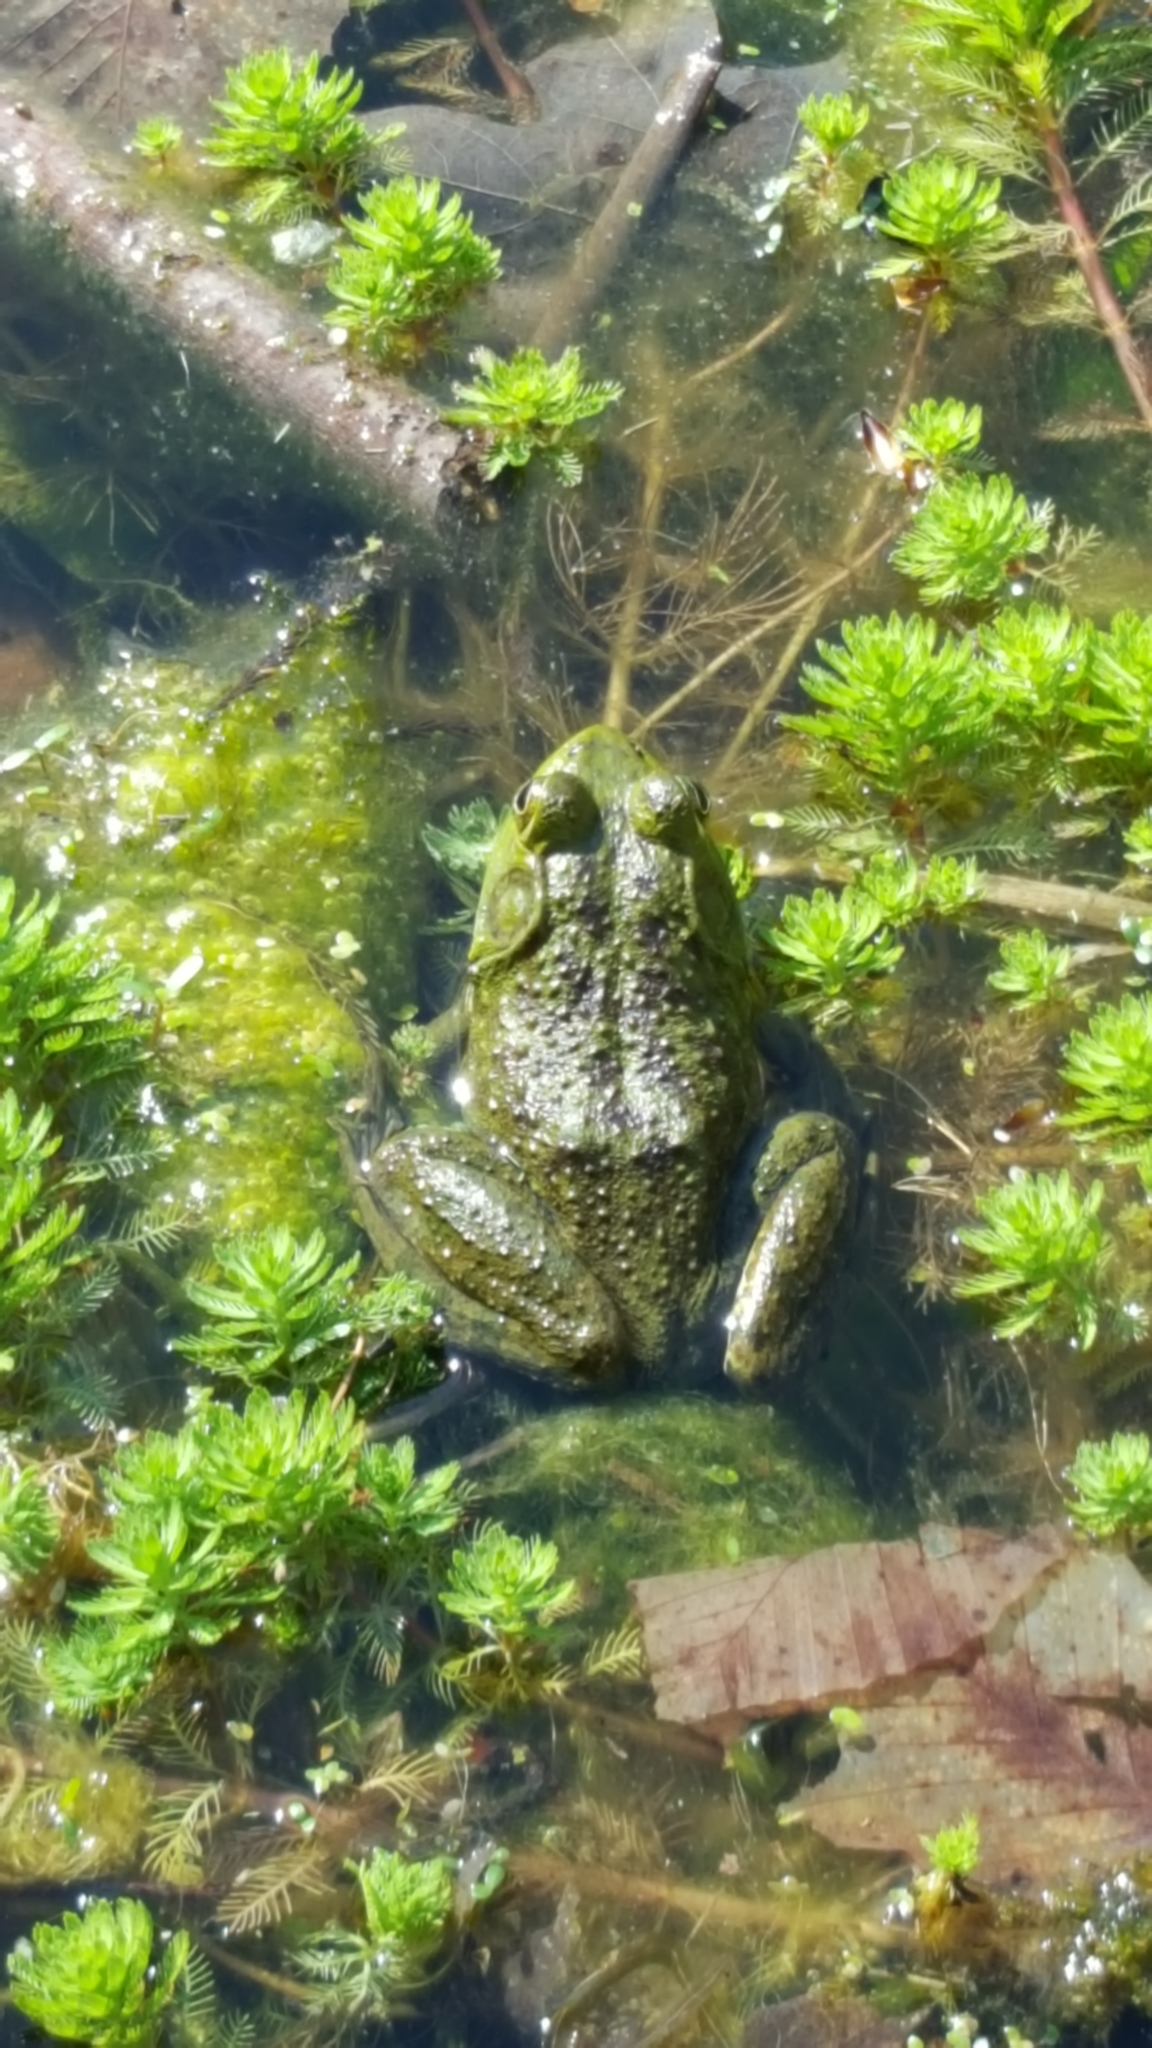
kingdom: Animalia
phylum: Chordata
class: Amphibia
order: Anura
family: Ranidae
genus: Lithobates
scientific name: Lithobates catesbeianus
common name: American bullfrog
